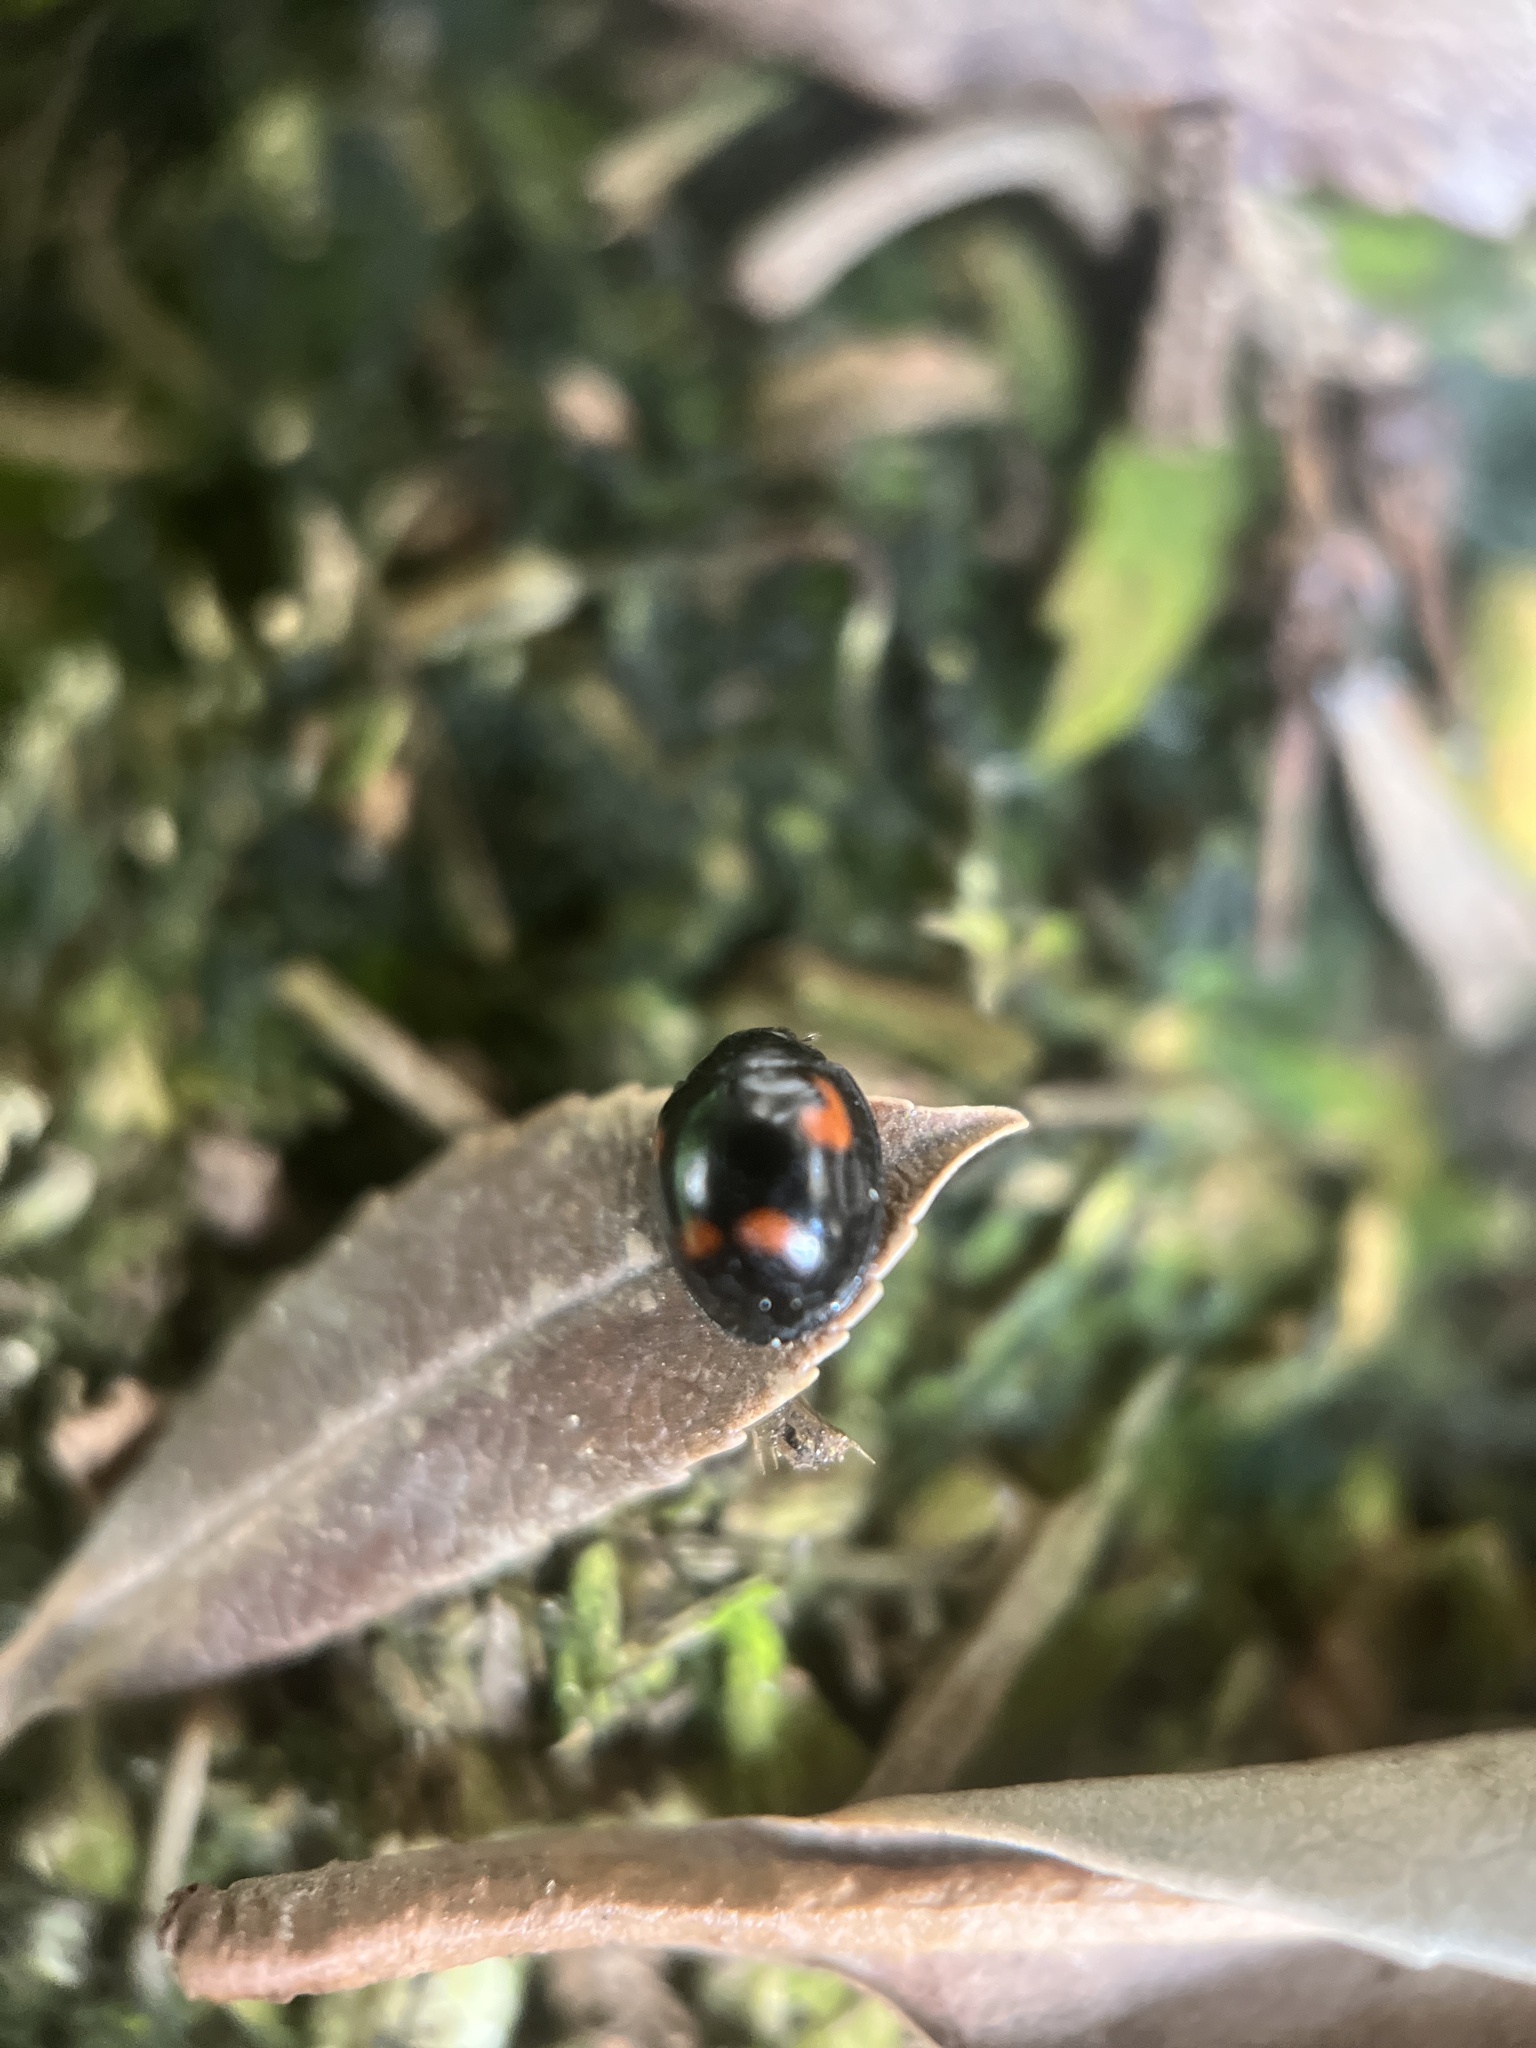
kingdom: Animalia
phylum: Arthropoda
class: Insecta
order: Coleoptera
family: Coccinellidae
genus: Brumus
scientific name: Brumus quadripustulatus
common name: Ladybird beetle
